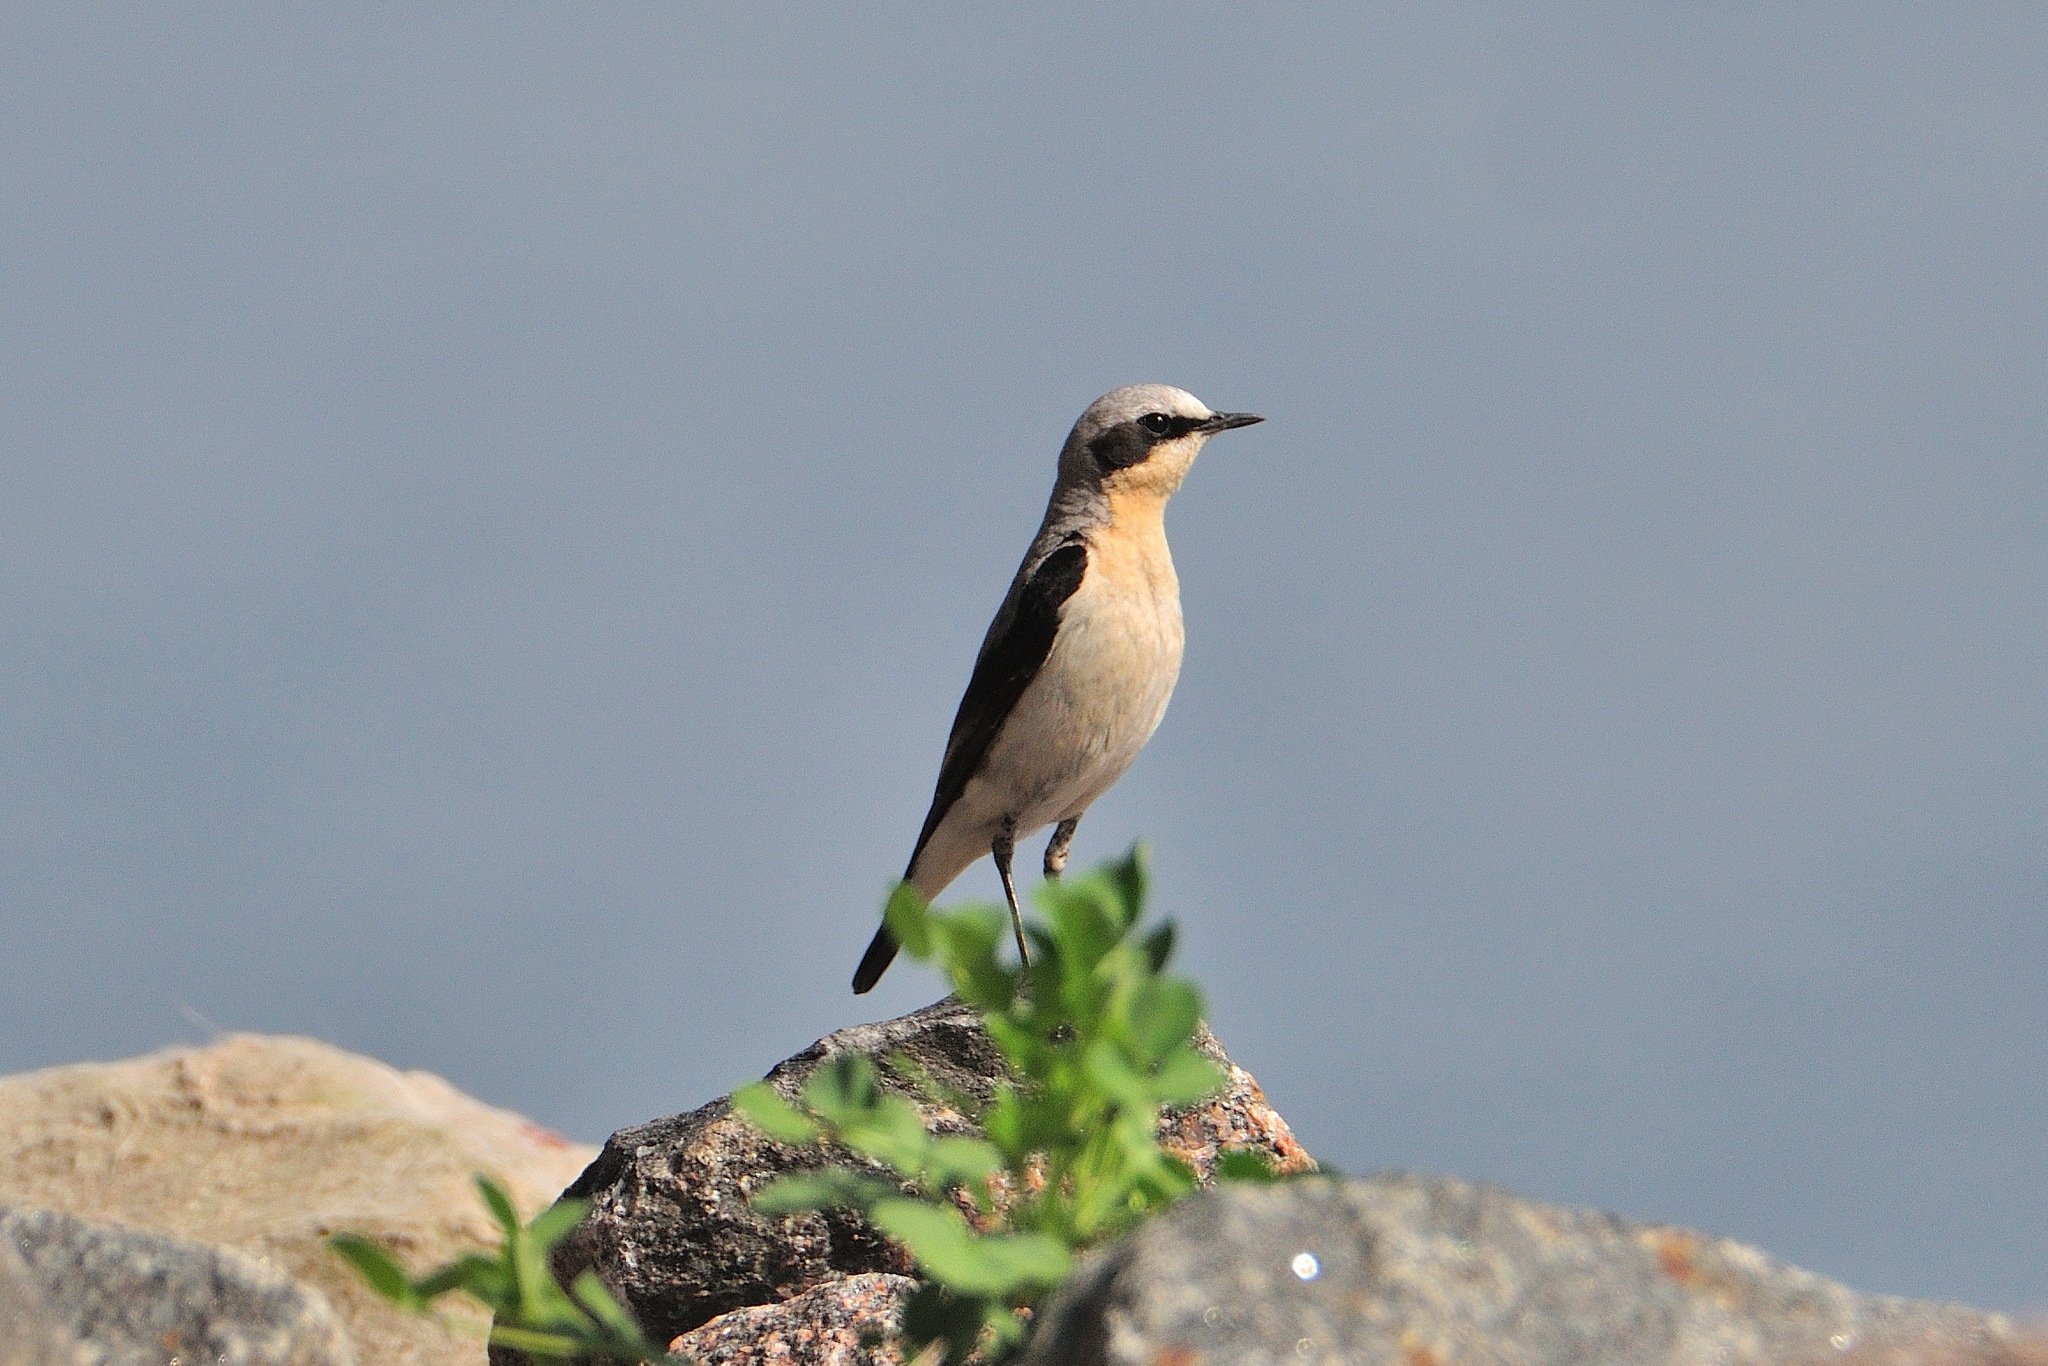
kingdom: Animalia
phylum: Chordata
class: Aves
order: Passeriformes
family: Muscicapidae
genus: Oenanthe
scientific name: Oenanthe oenanthe
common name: Northern wheatear
